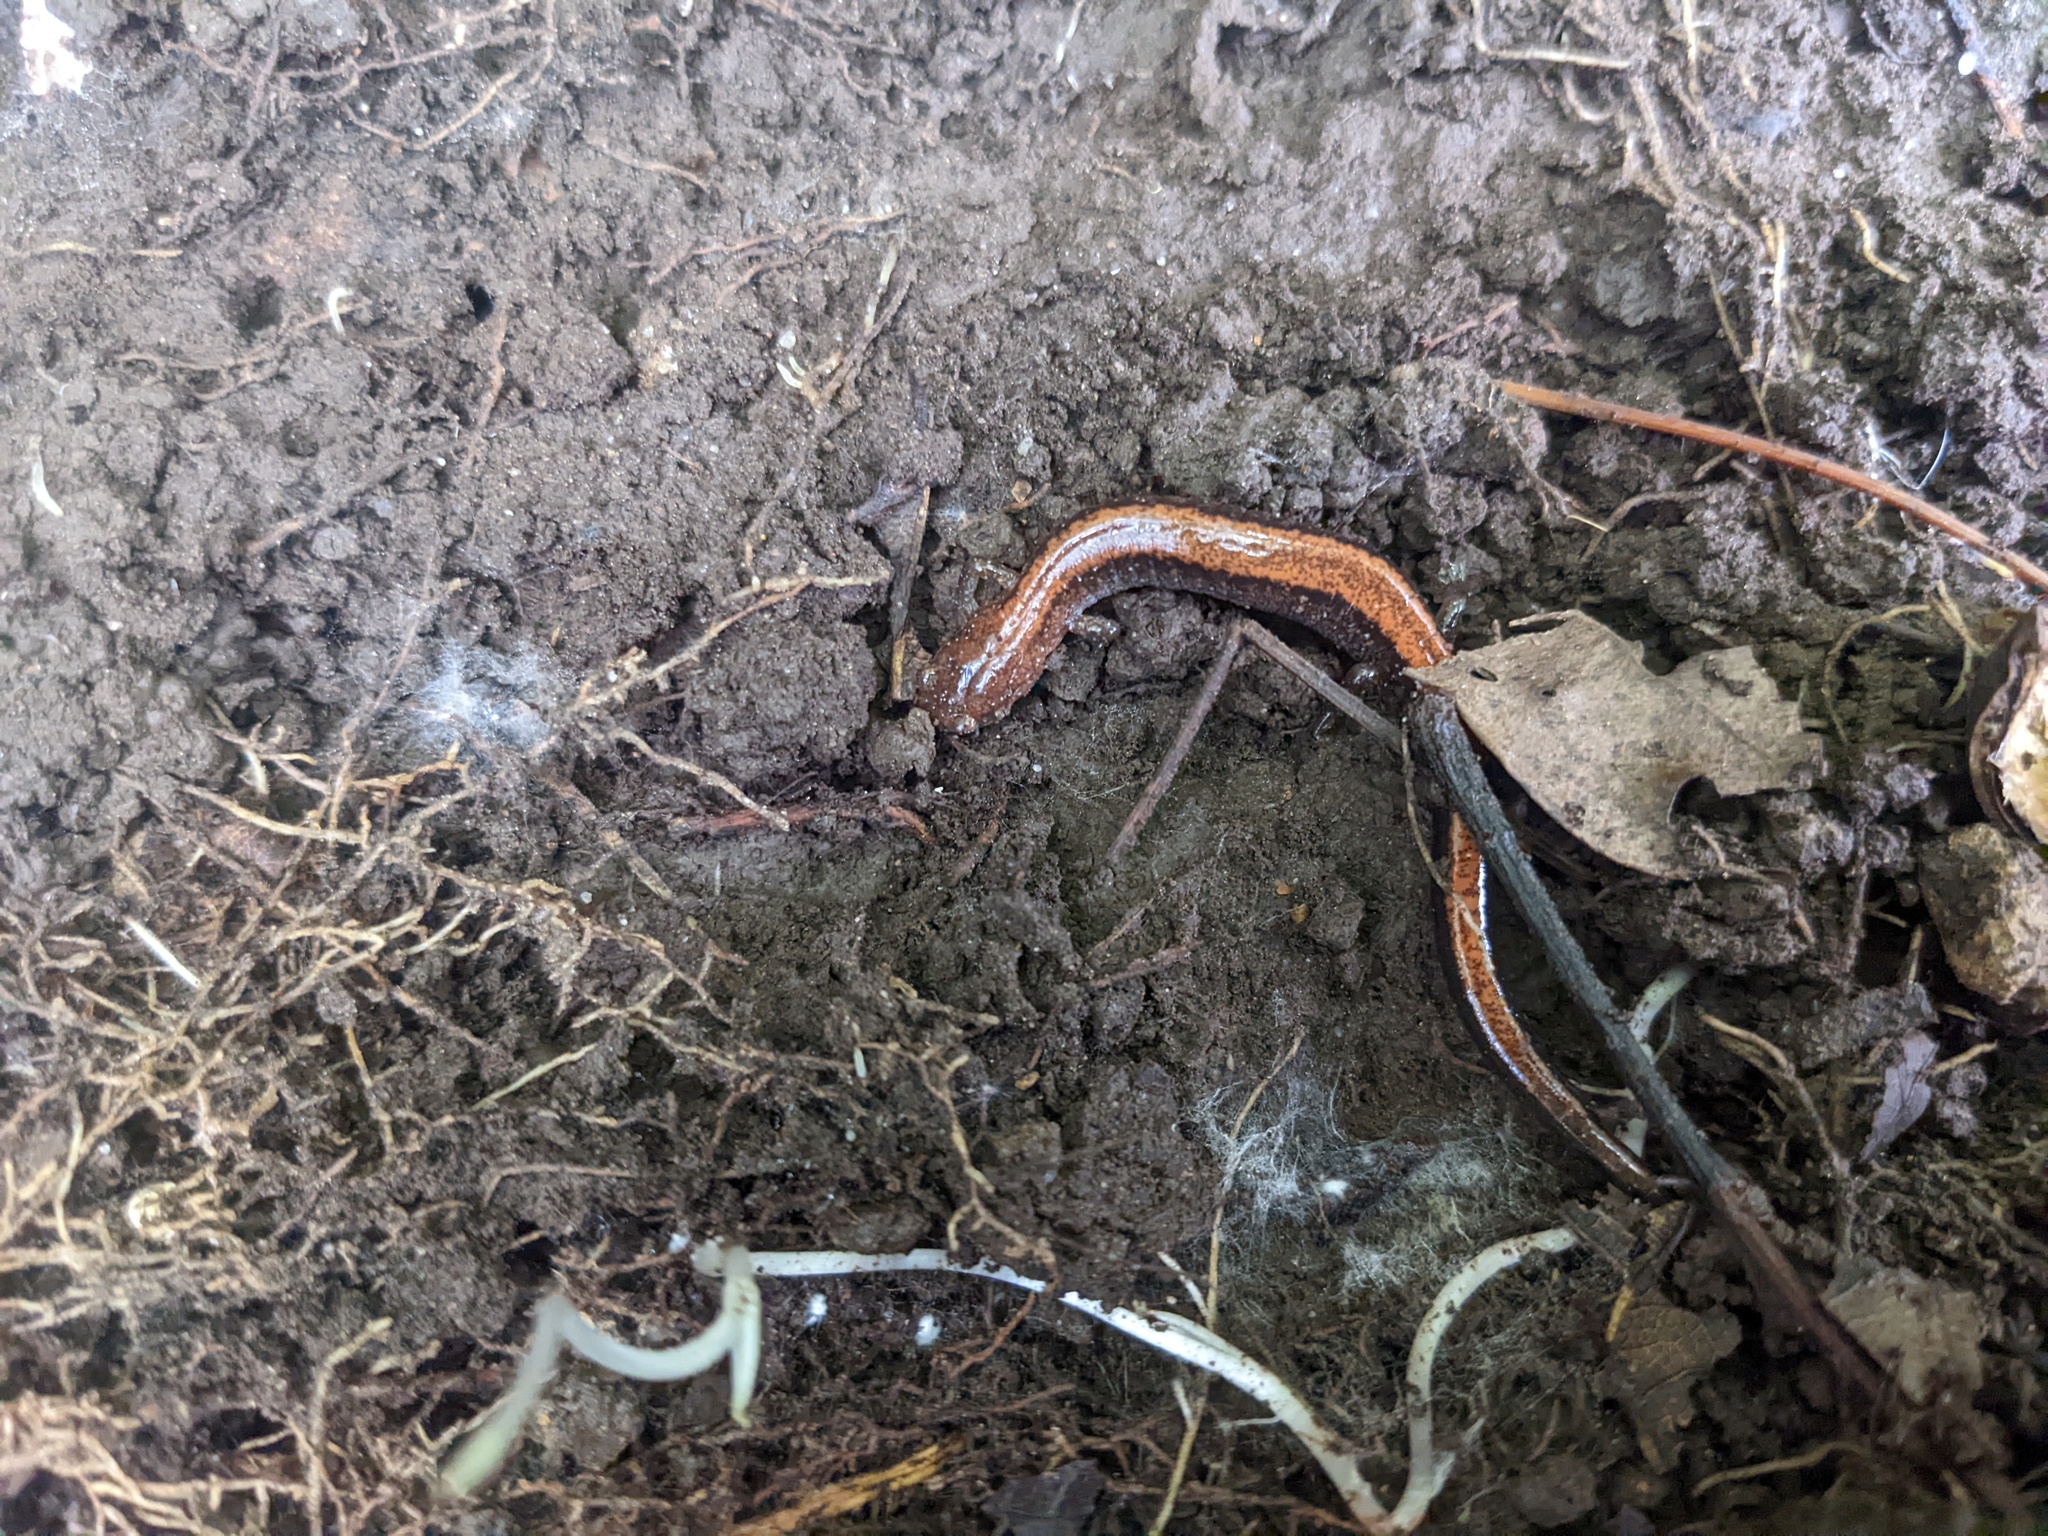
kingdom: Animalia
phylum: Chordata
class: Amphibia
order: Caudata
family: Plethodontidae
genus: Plethodon
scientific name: Plethodon cinereus
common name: Redback salamander
